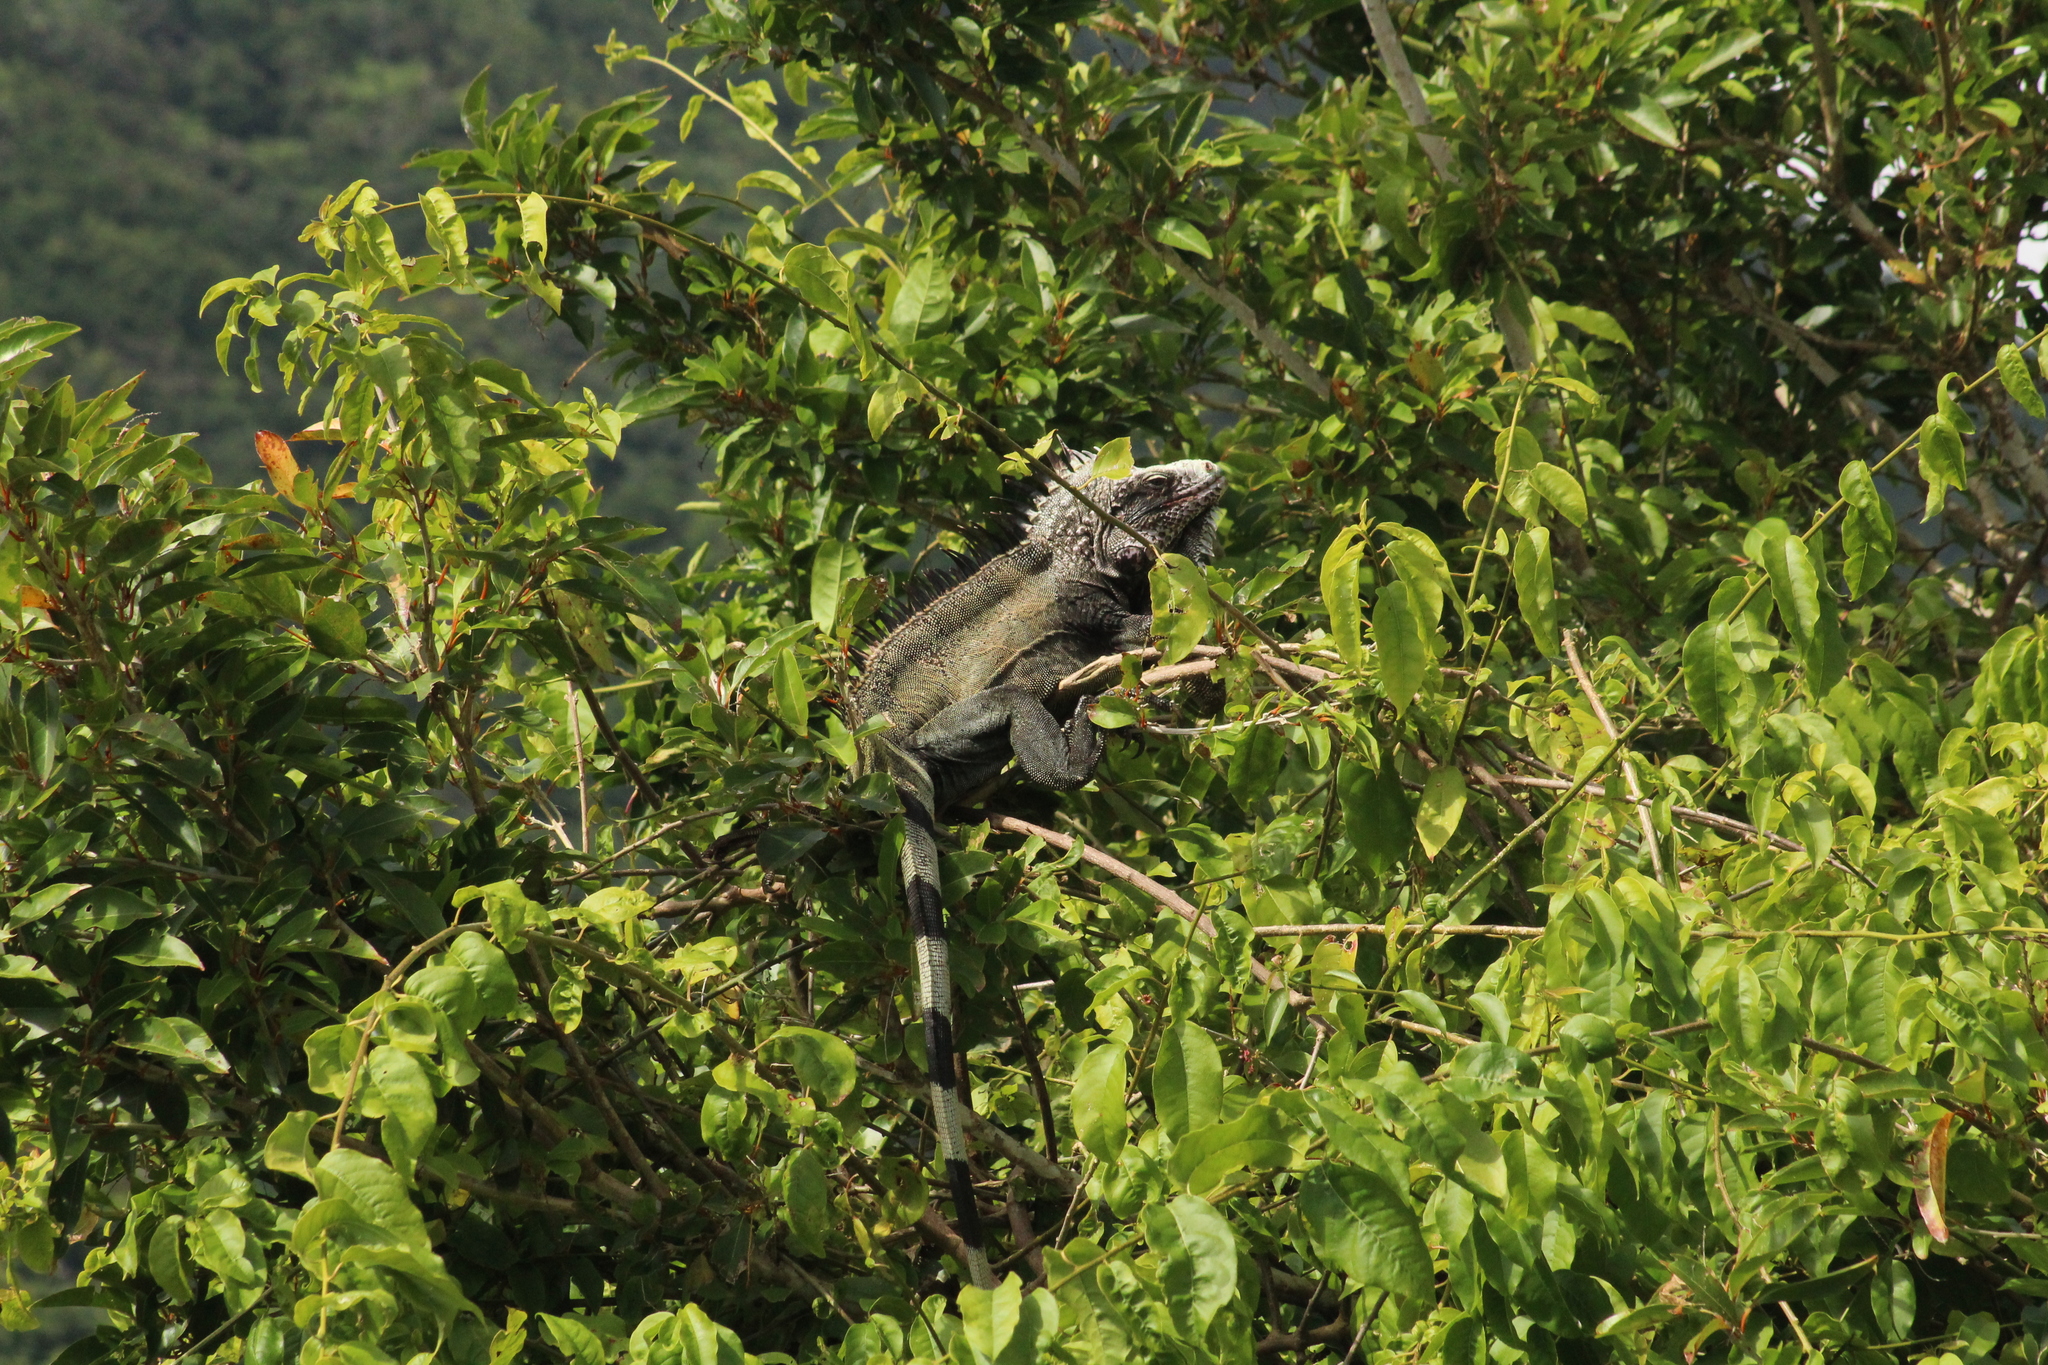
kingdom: Animalia
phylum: Chordata
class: Squamata
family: Iguanidae
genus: Iguana
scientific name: Iguana iguana
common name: Green iguana
